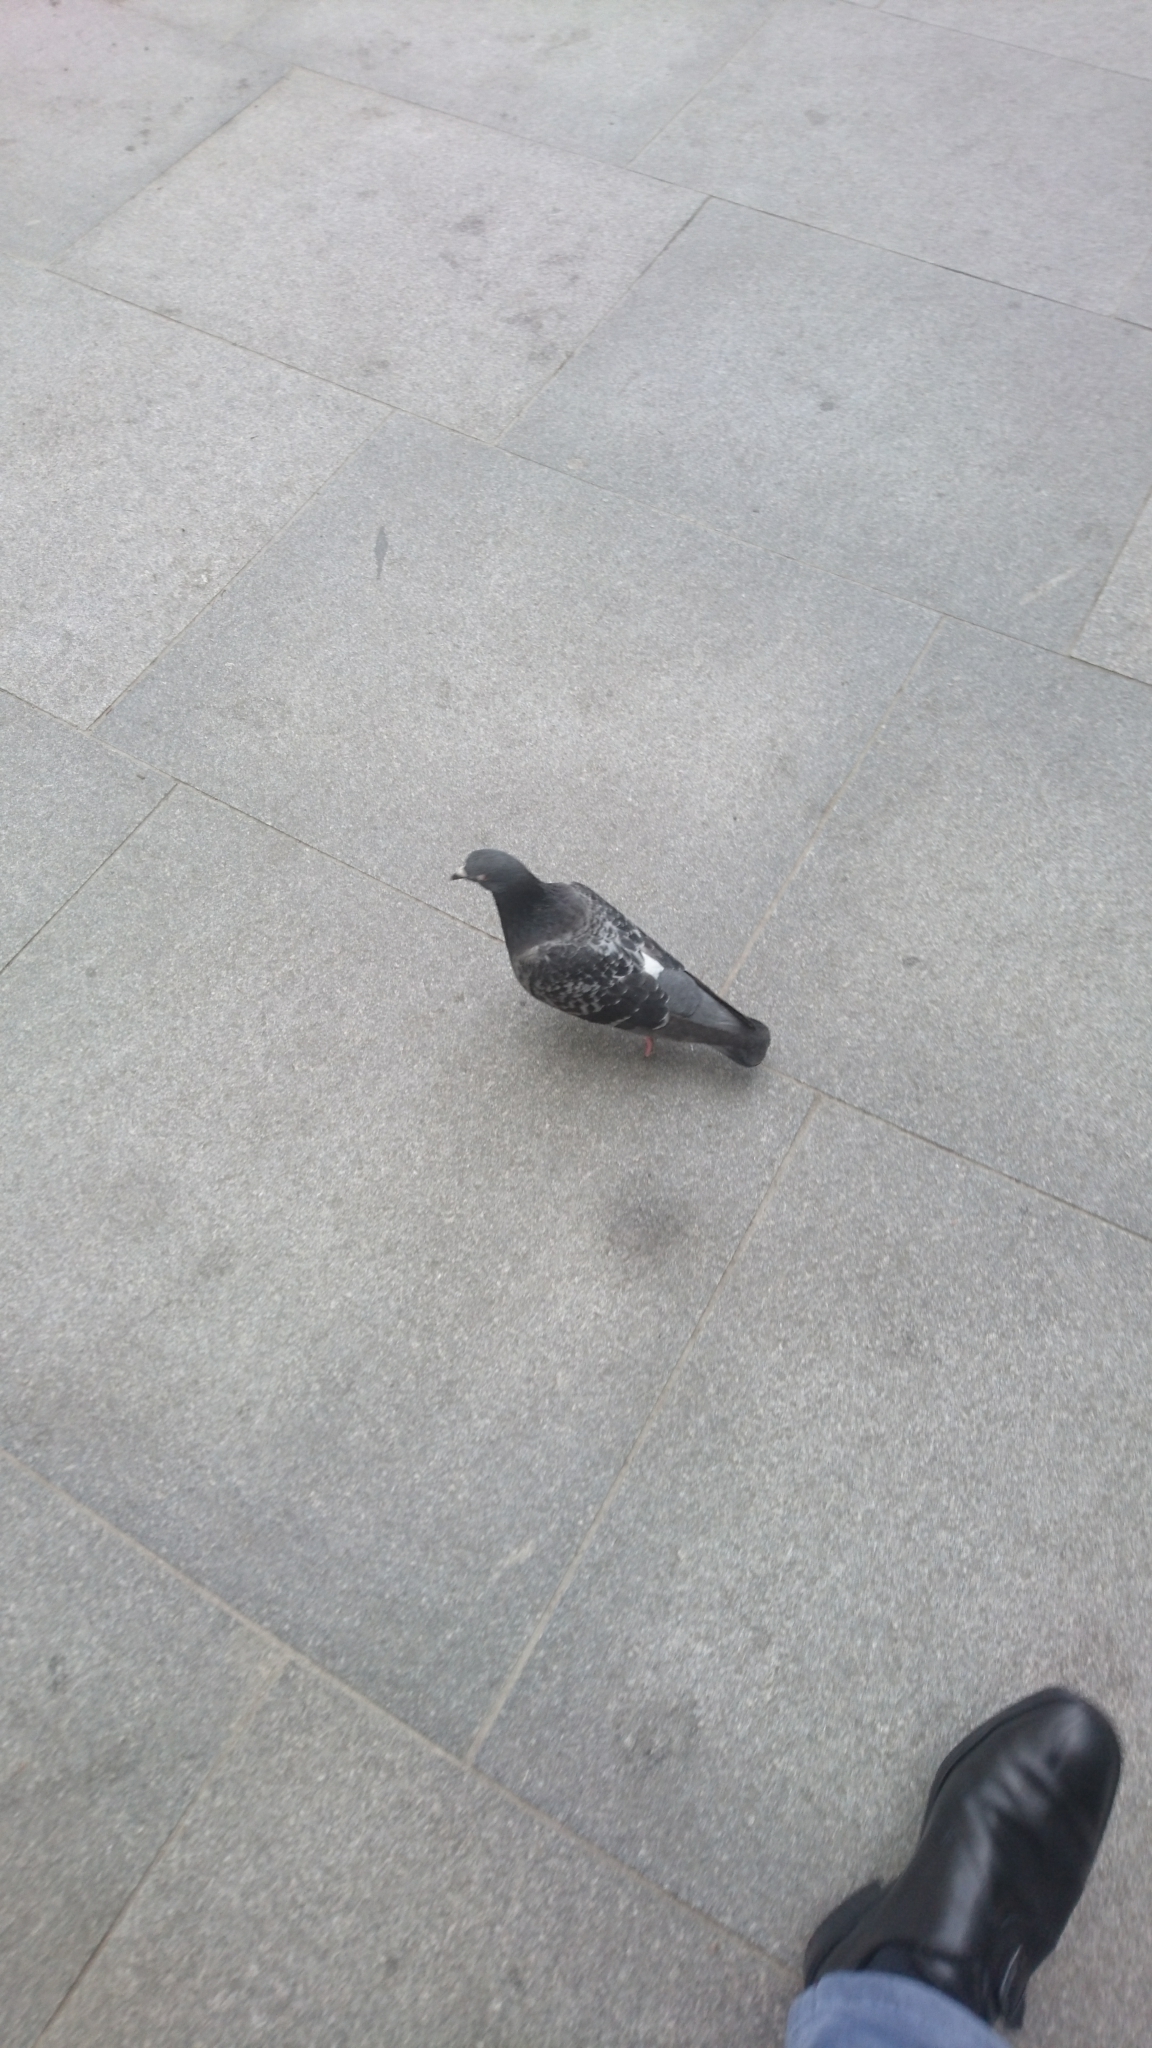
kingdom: Animalia
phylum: Chordata
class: Aves
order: Columbiformes
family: Columbidae
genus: Columba
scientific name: Columba livia
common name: Rock pigeon
